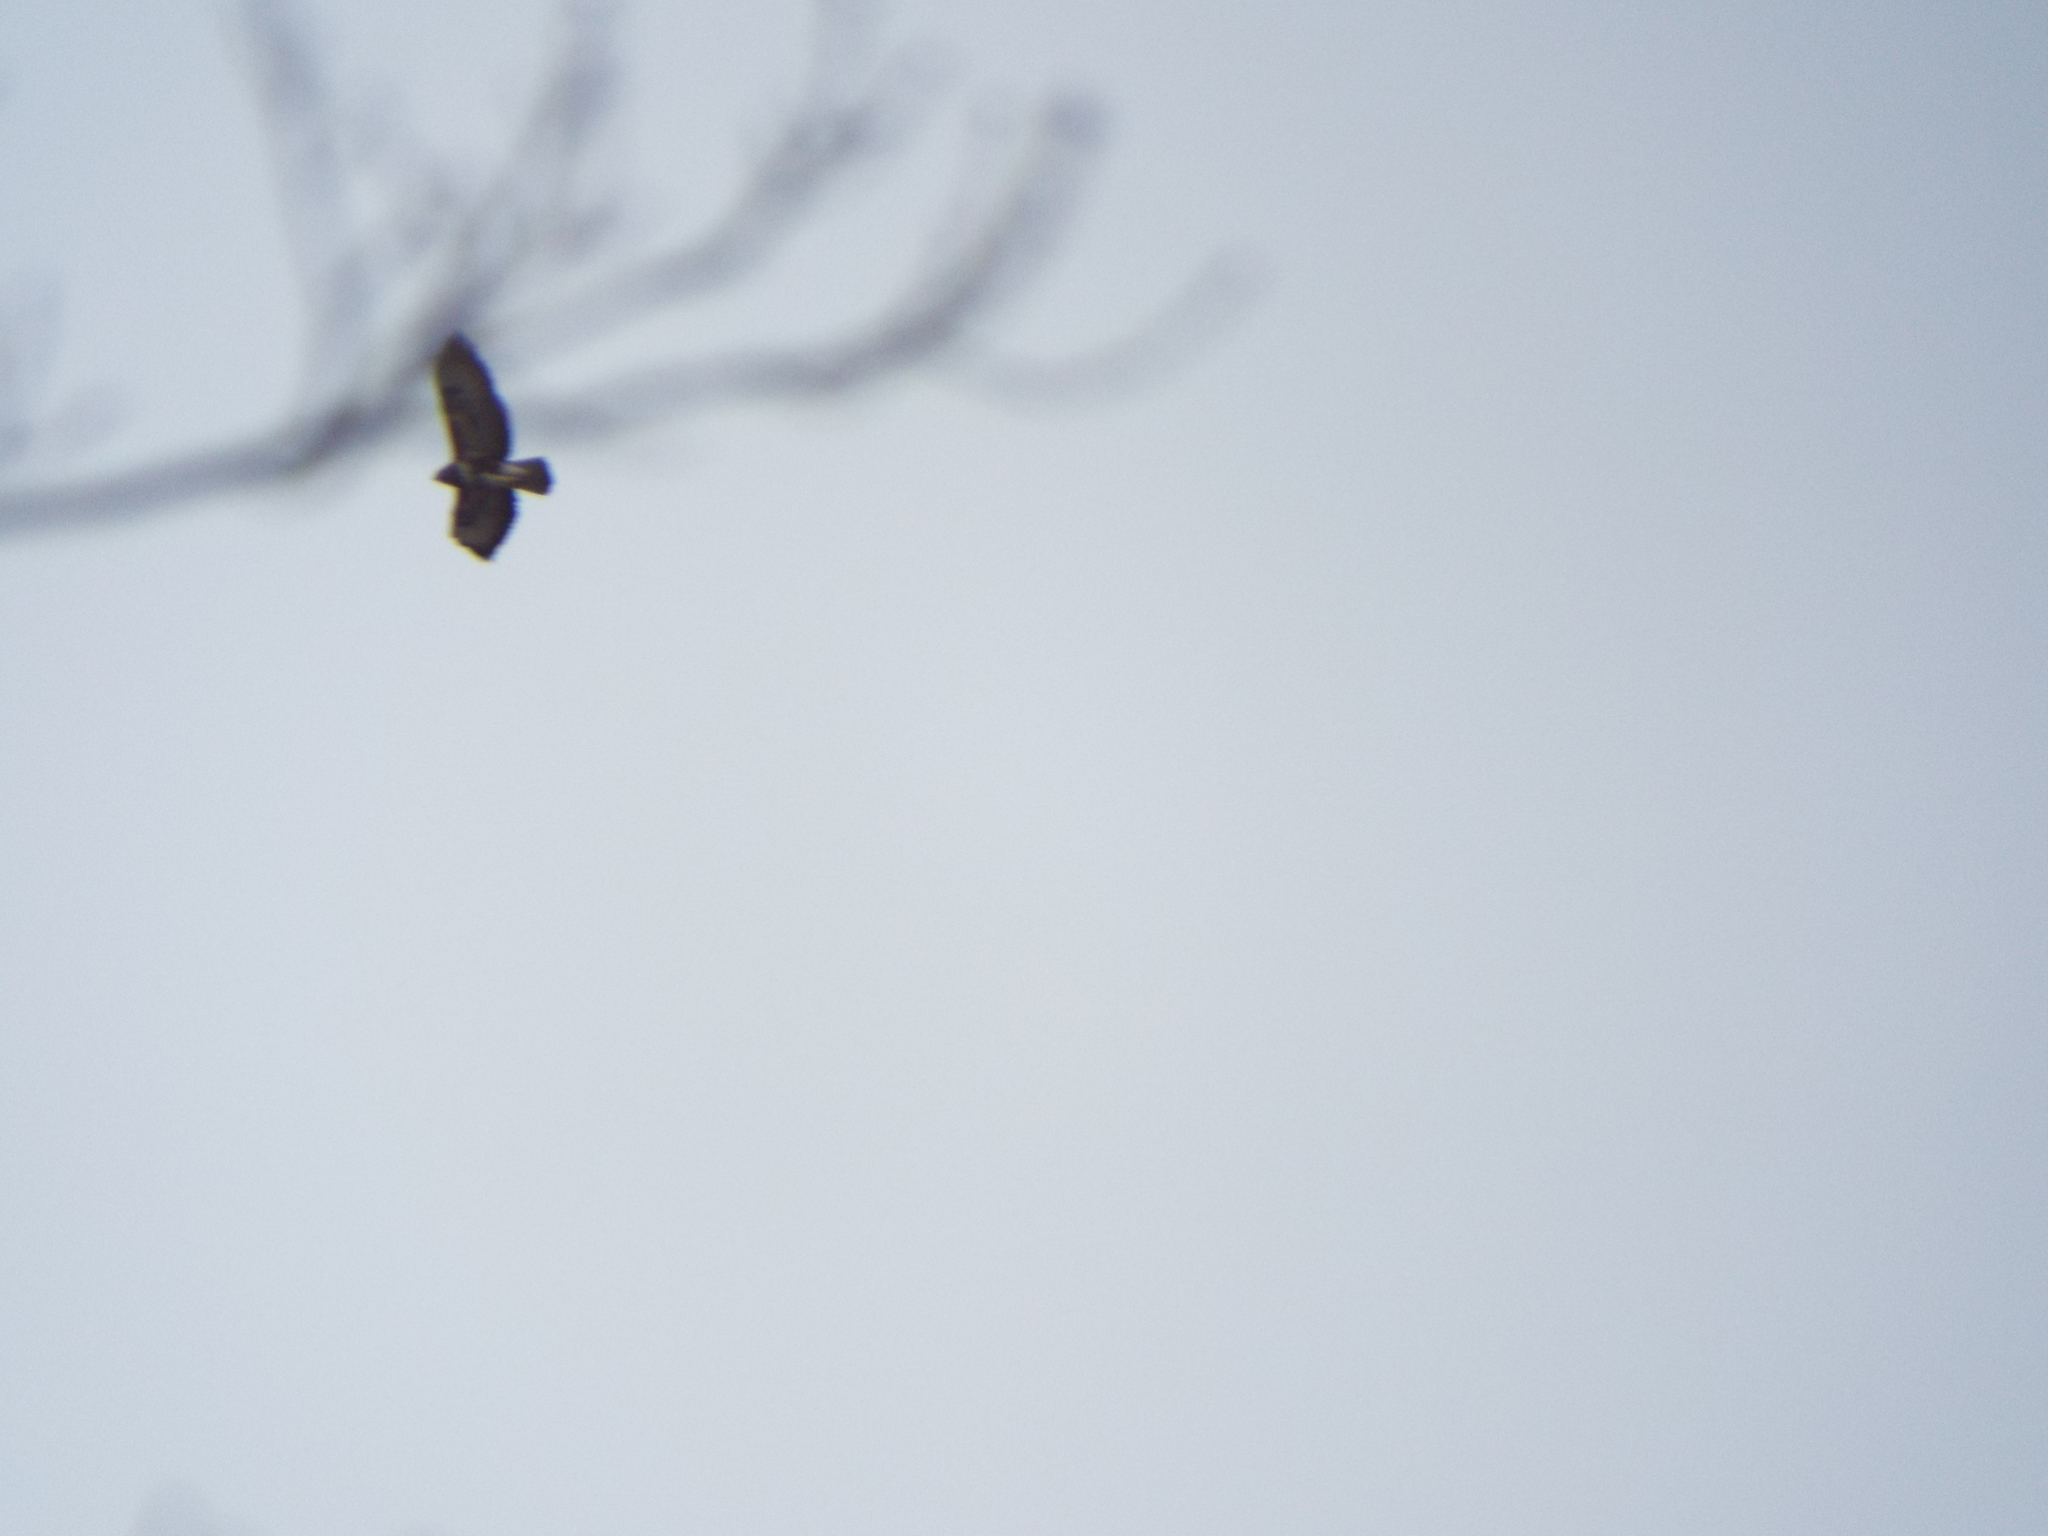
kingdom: Animalia
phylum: Chordata
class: Aves
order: Accipitriformes
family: Accipitridae
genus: Buteo
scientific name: Buteo buteo
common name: Common buzzard
